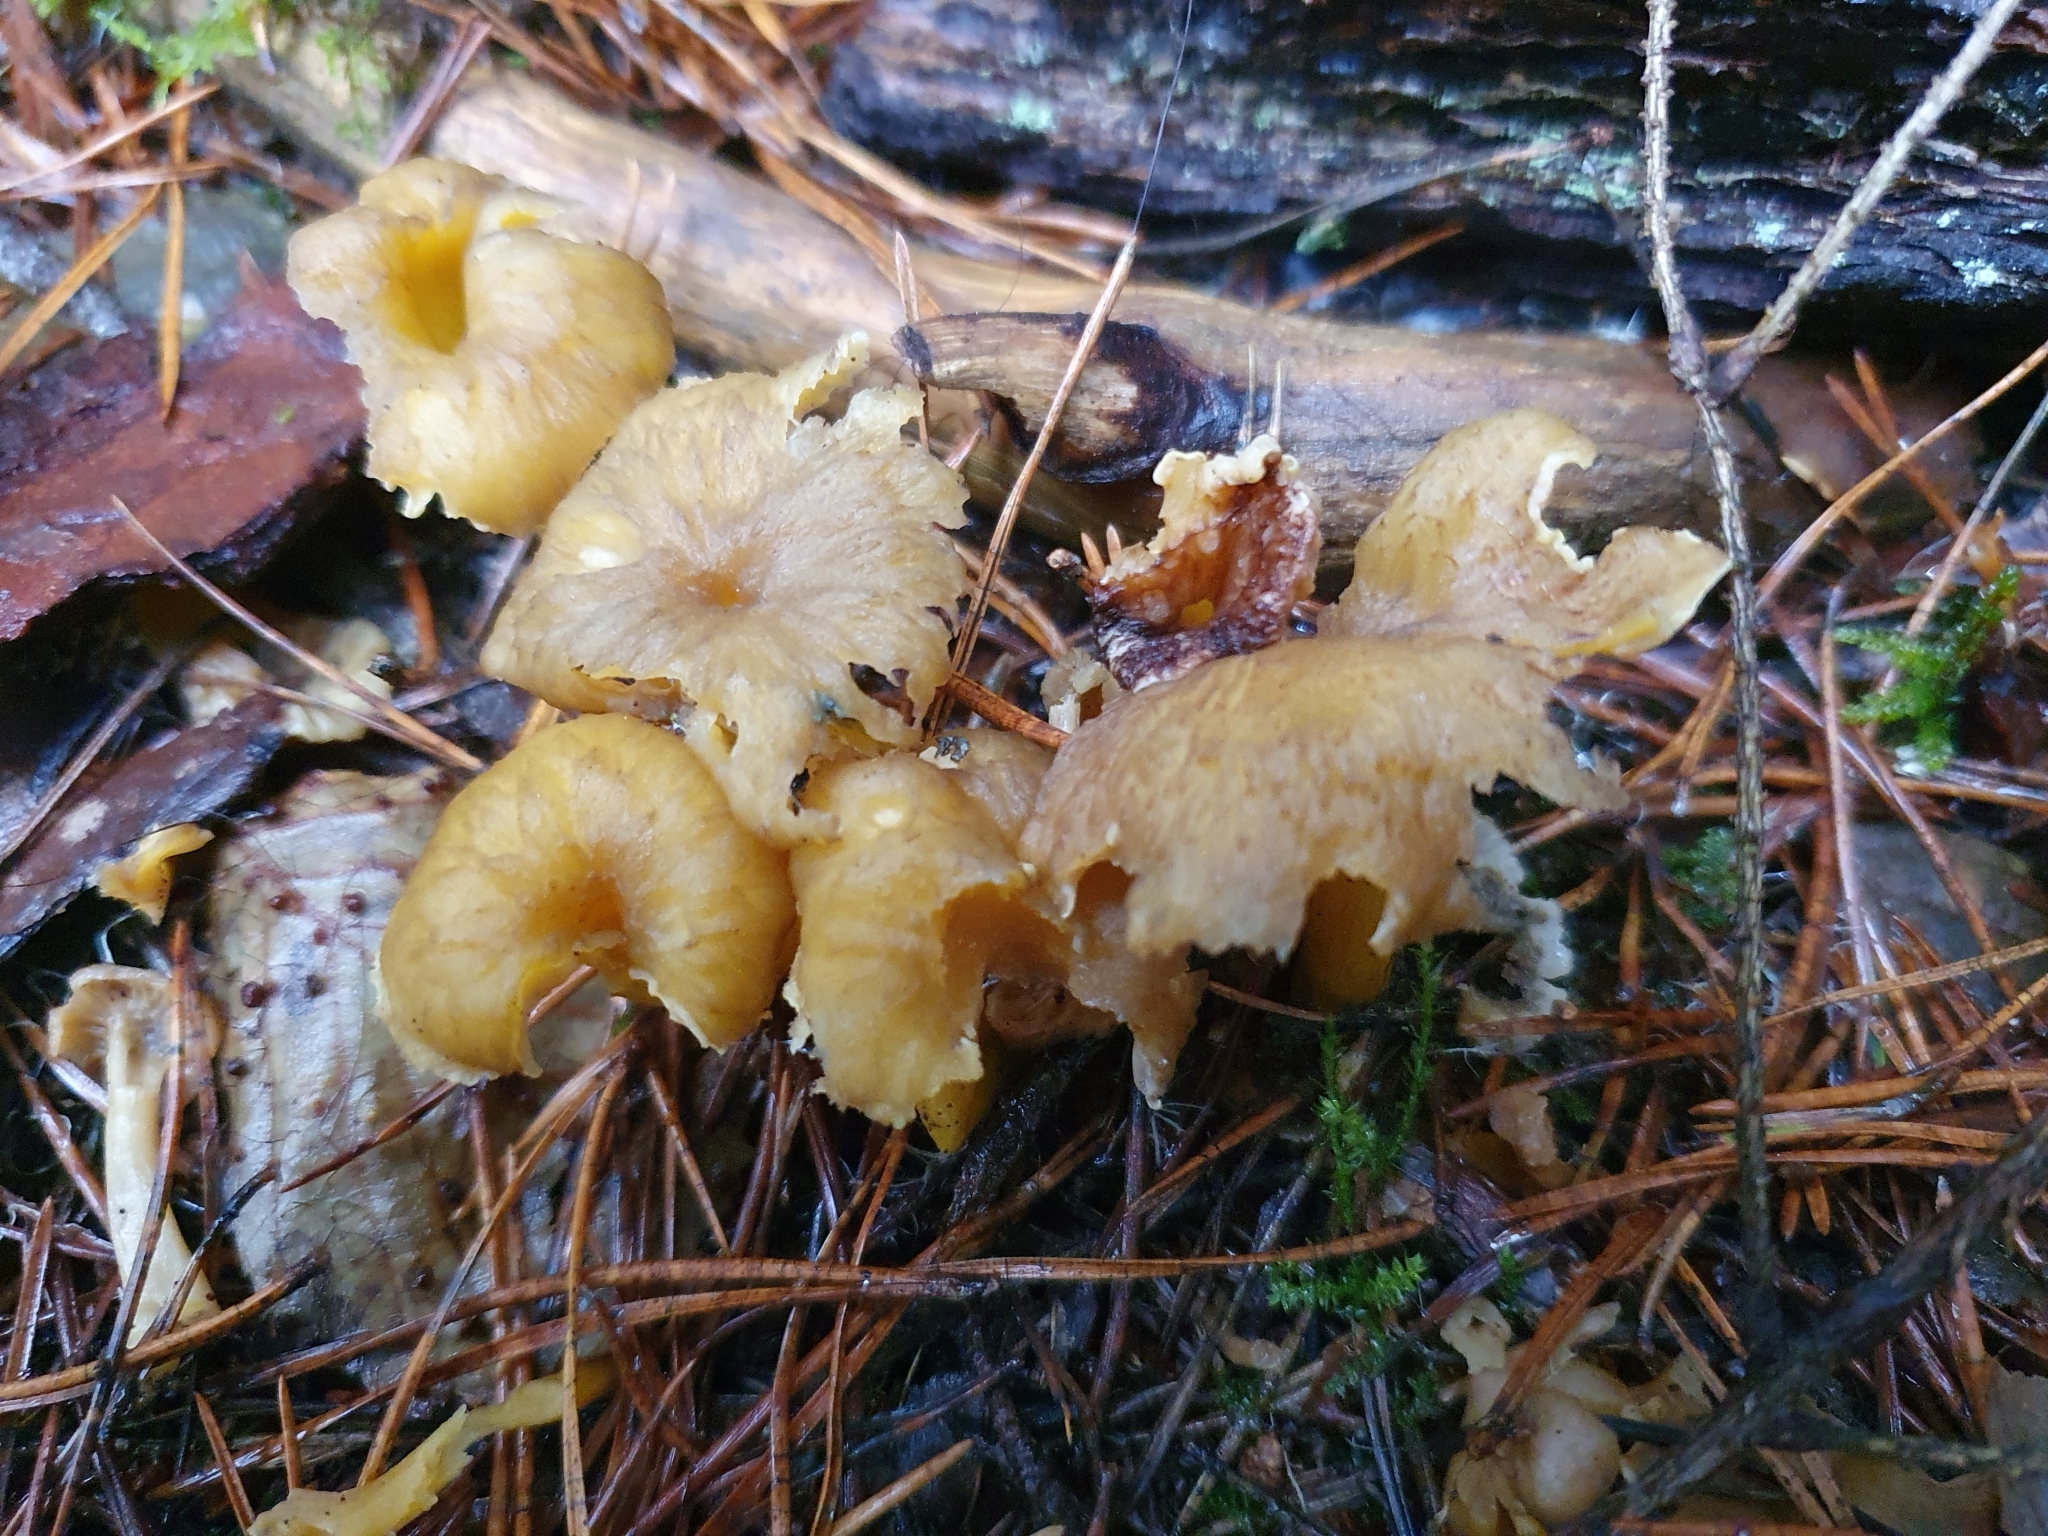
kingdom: Fungi
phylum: Basidiomycota
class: Agaricomycetes
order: Cantharellales
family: Hydnaceae
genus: Craterellus
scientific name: Craterellus tubaeformis
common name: Yellowfoot
